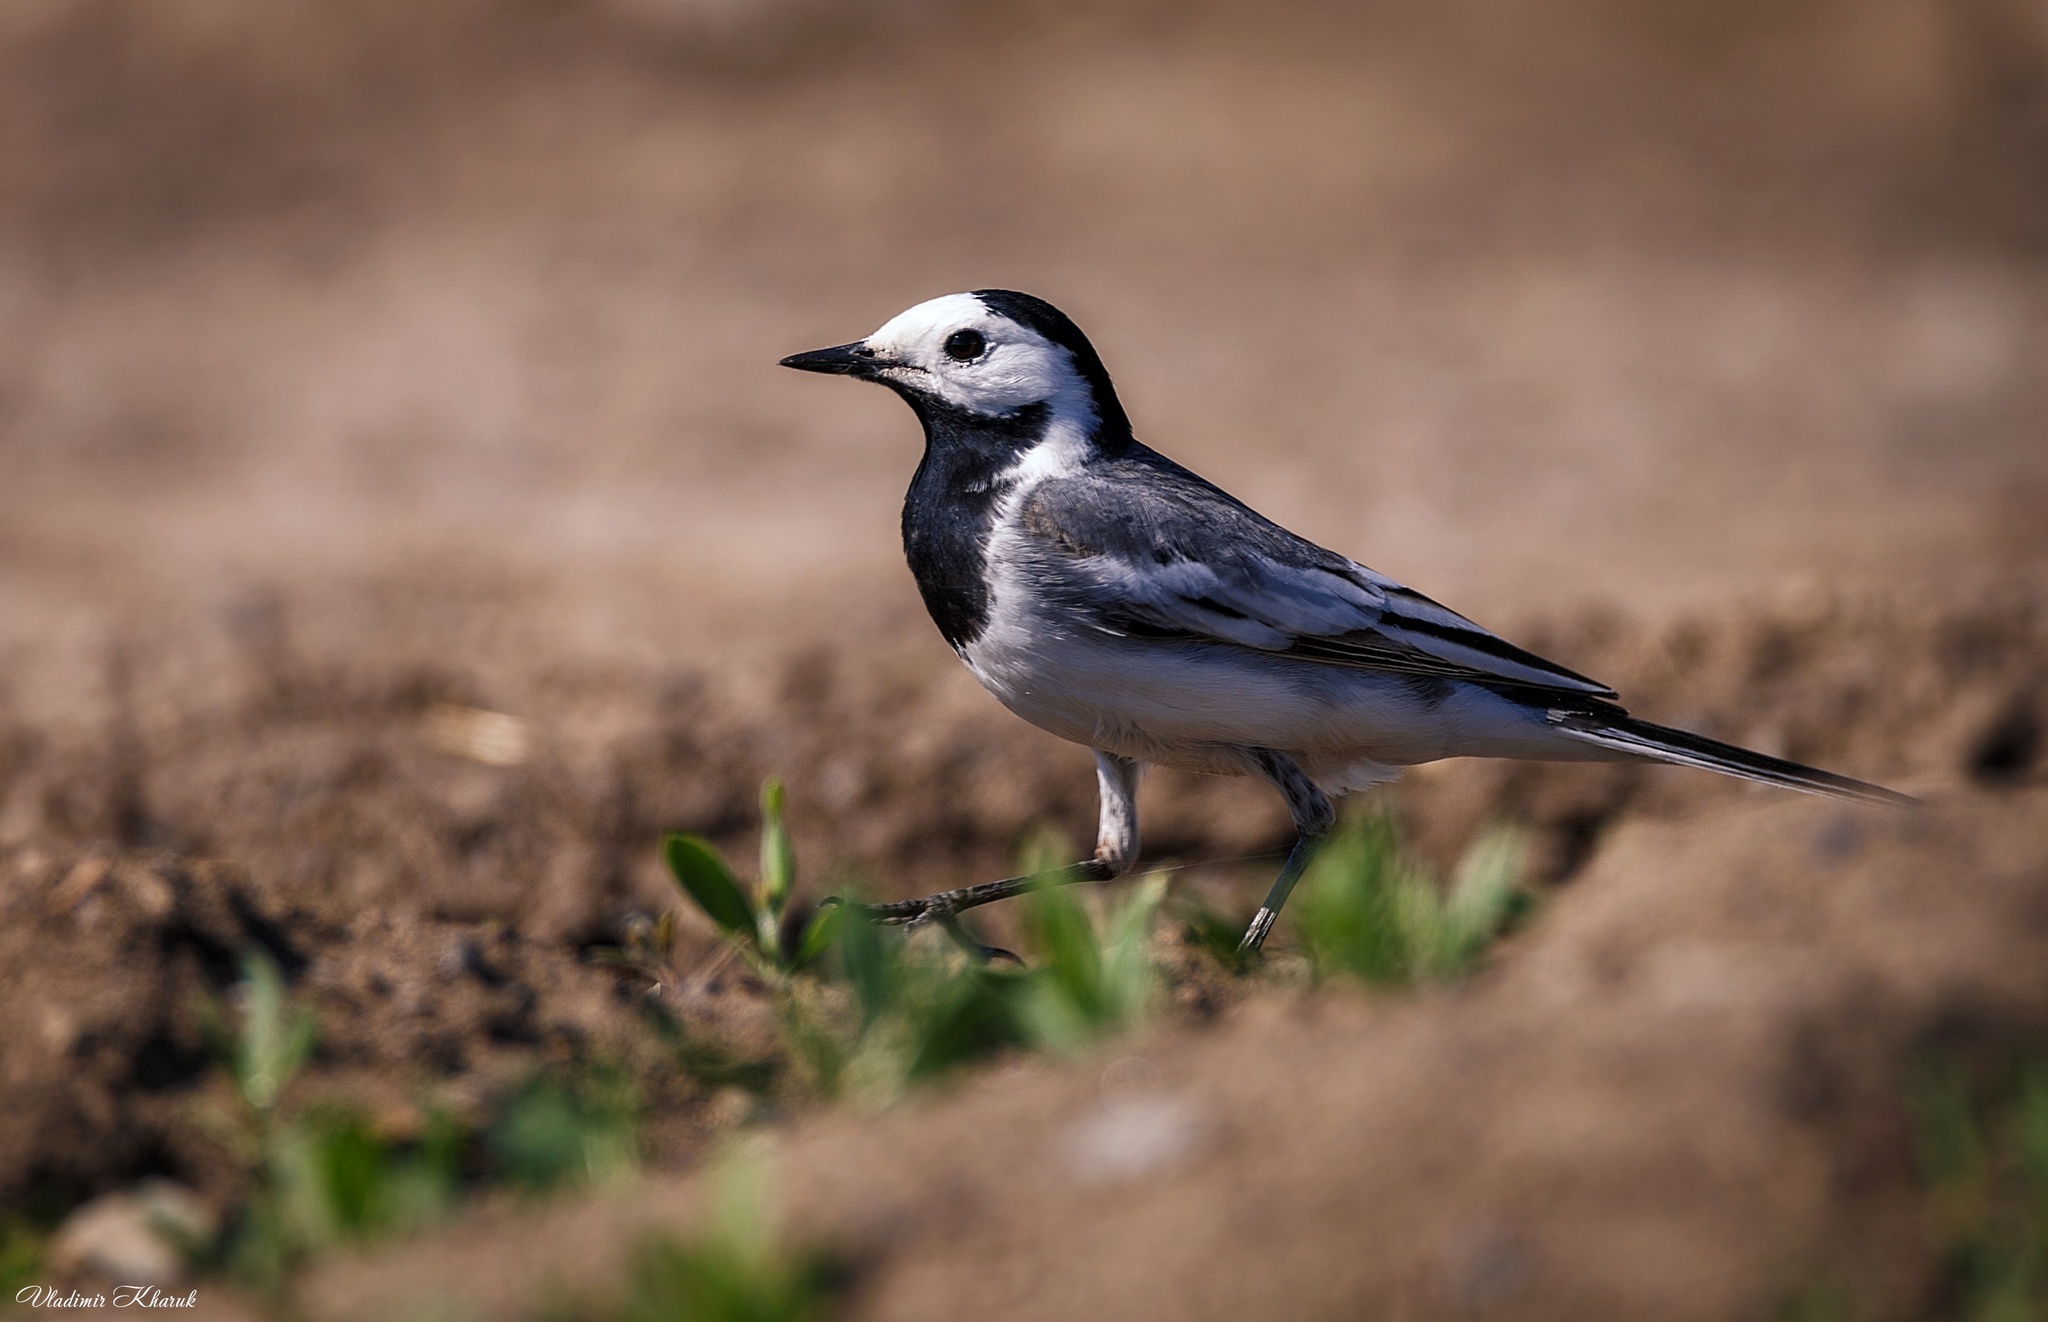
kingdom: Animalia
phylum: Chordata
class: Aves
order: Passeriformes
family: Motacillidae
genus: Motacilla
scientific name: Motacilla alba
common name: White wagtail
